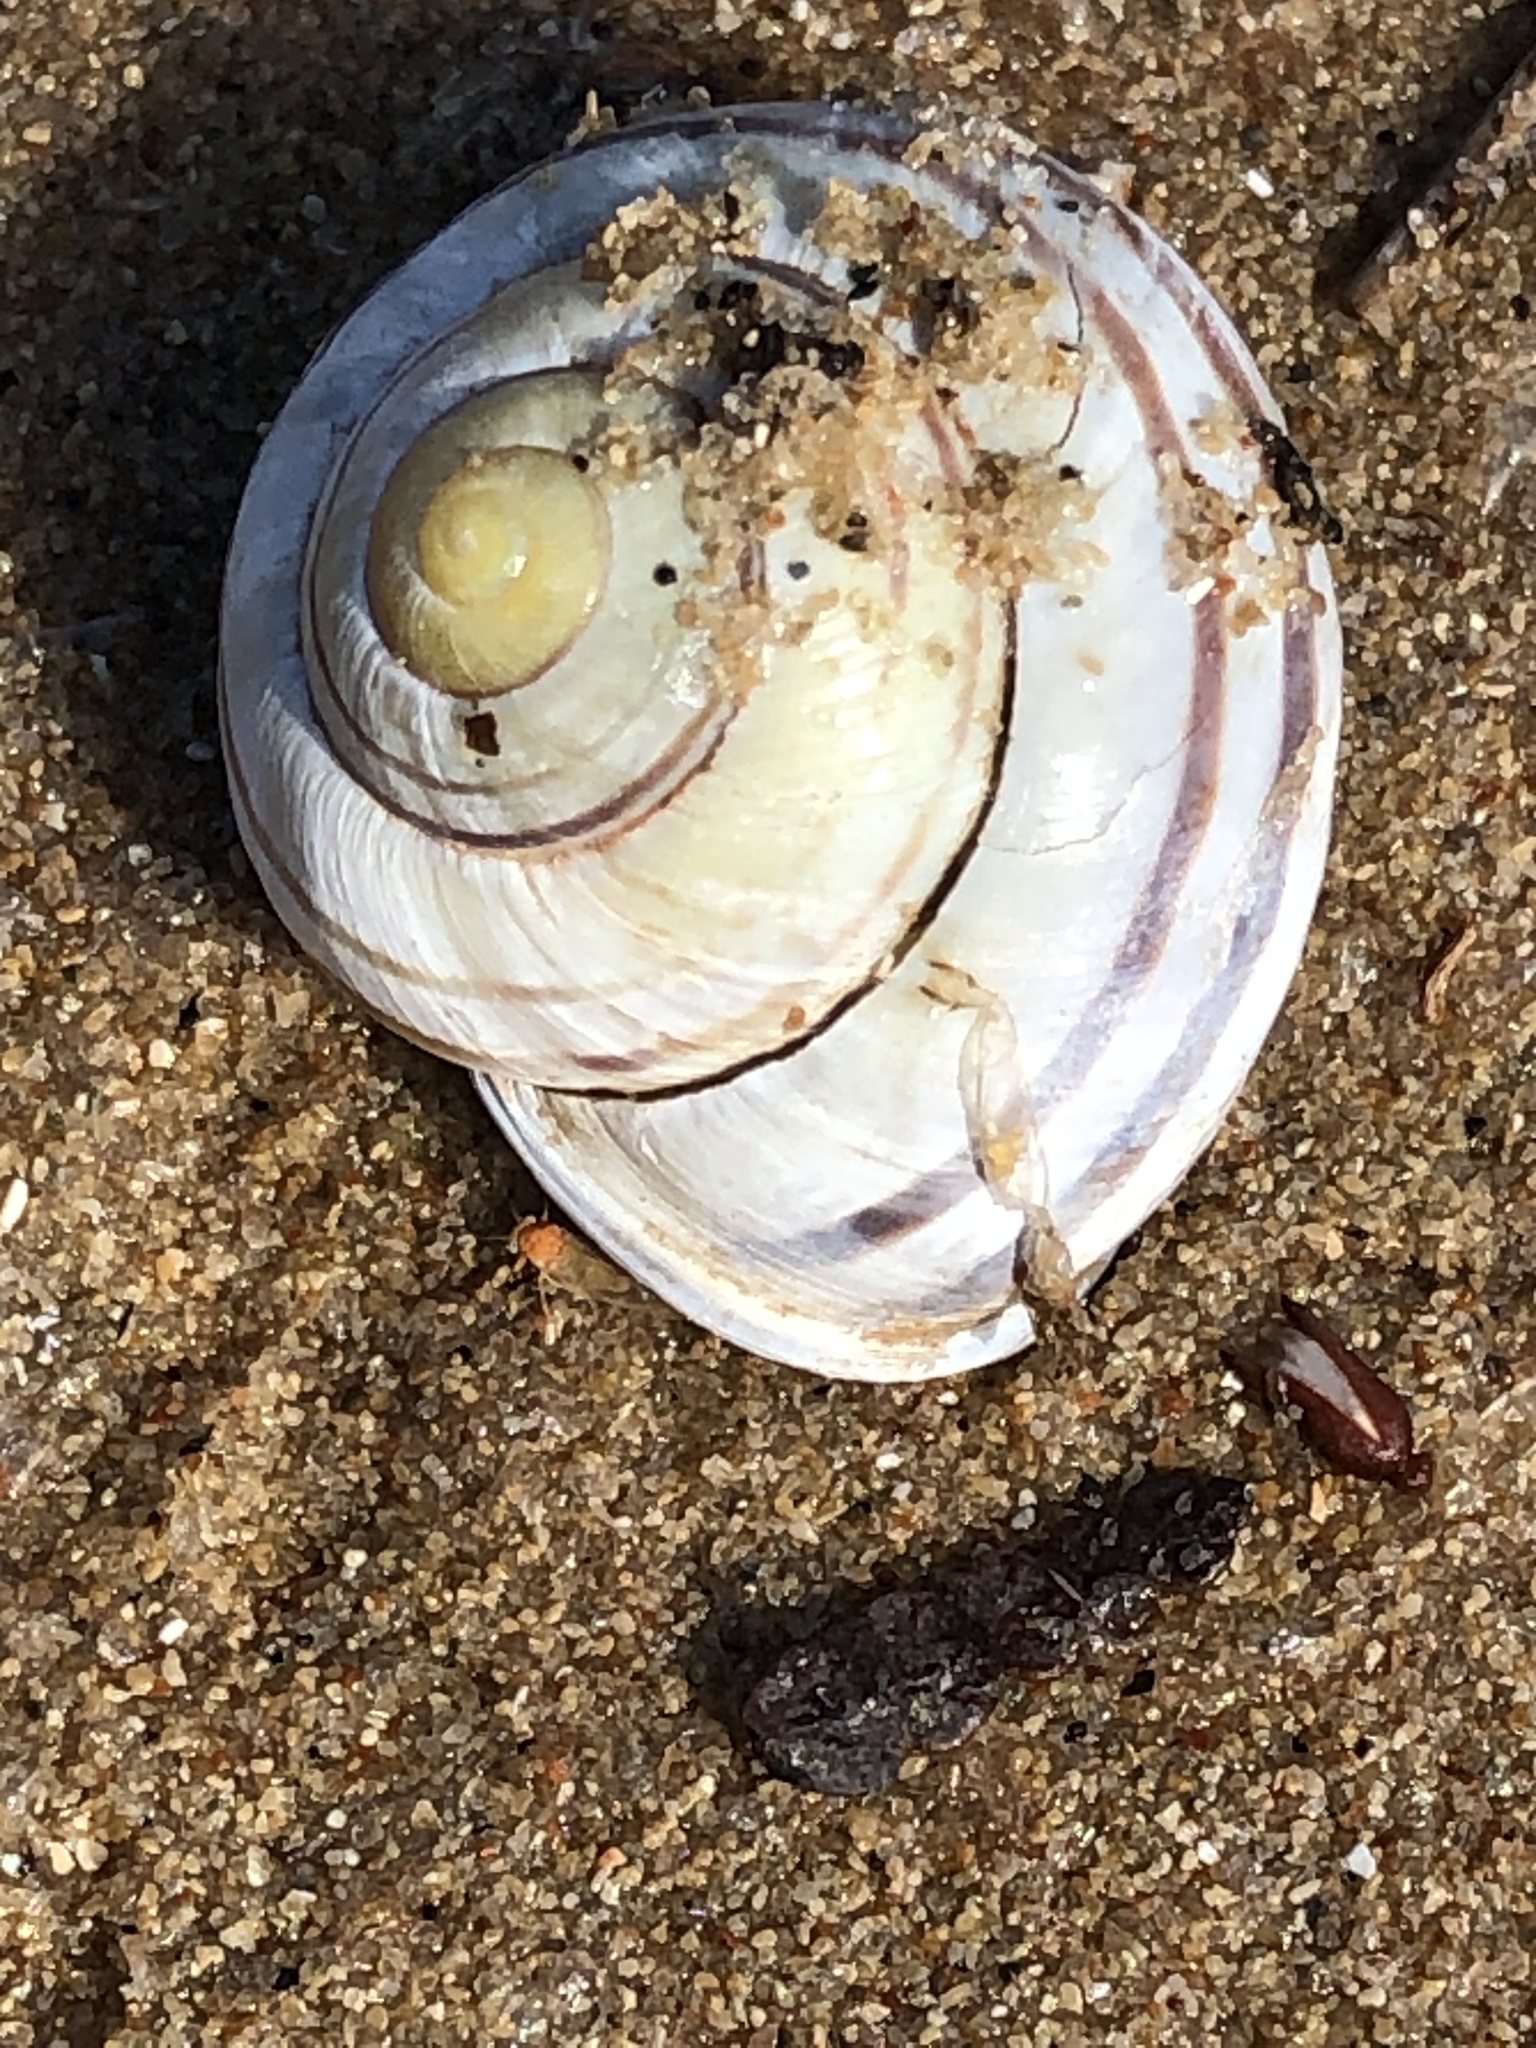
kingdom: Animalia
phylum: Mollusca
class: Gastropoda
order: Stylommatophora
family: Helicidae
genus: Cepaea
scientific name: Cepaea nemoralis
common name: Grovesnail
